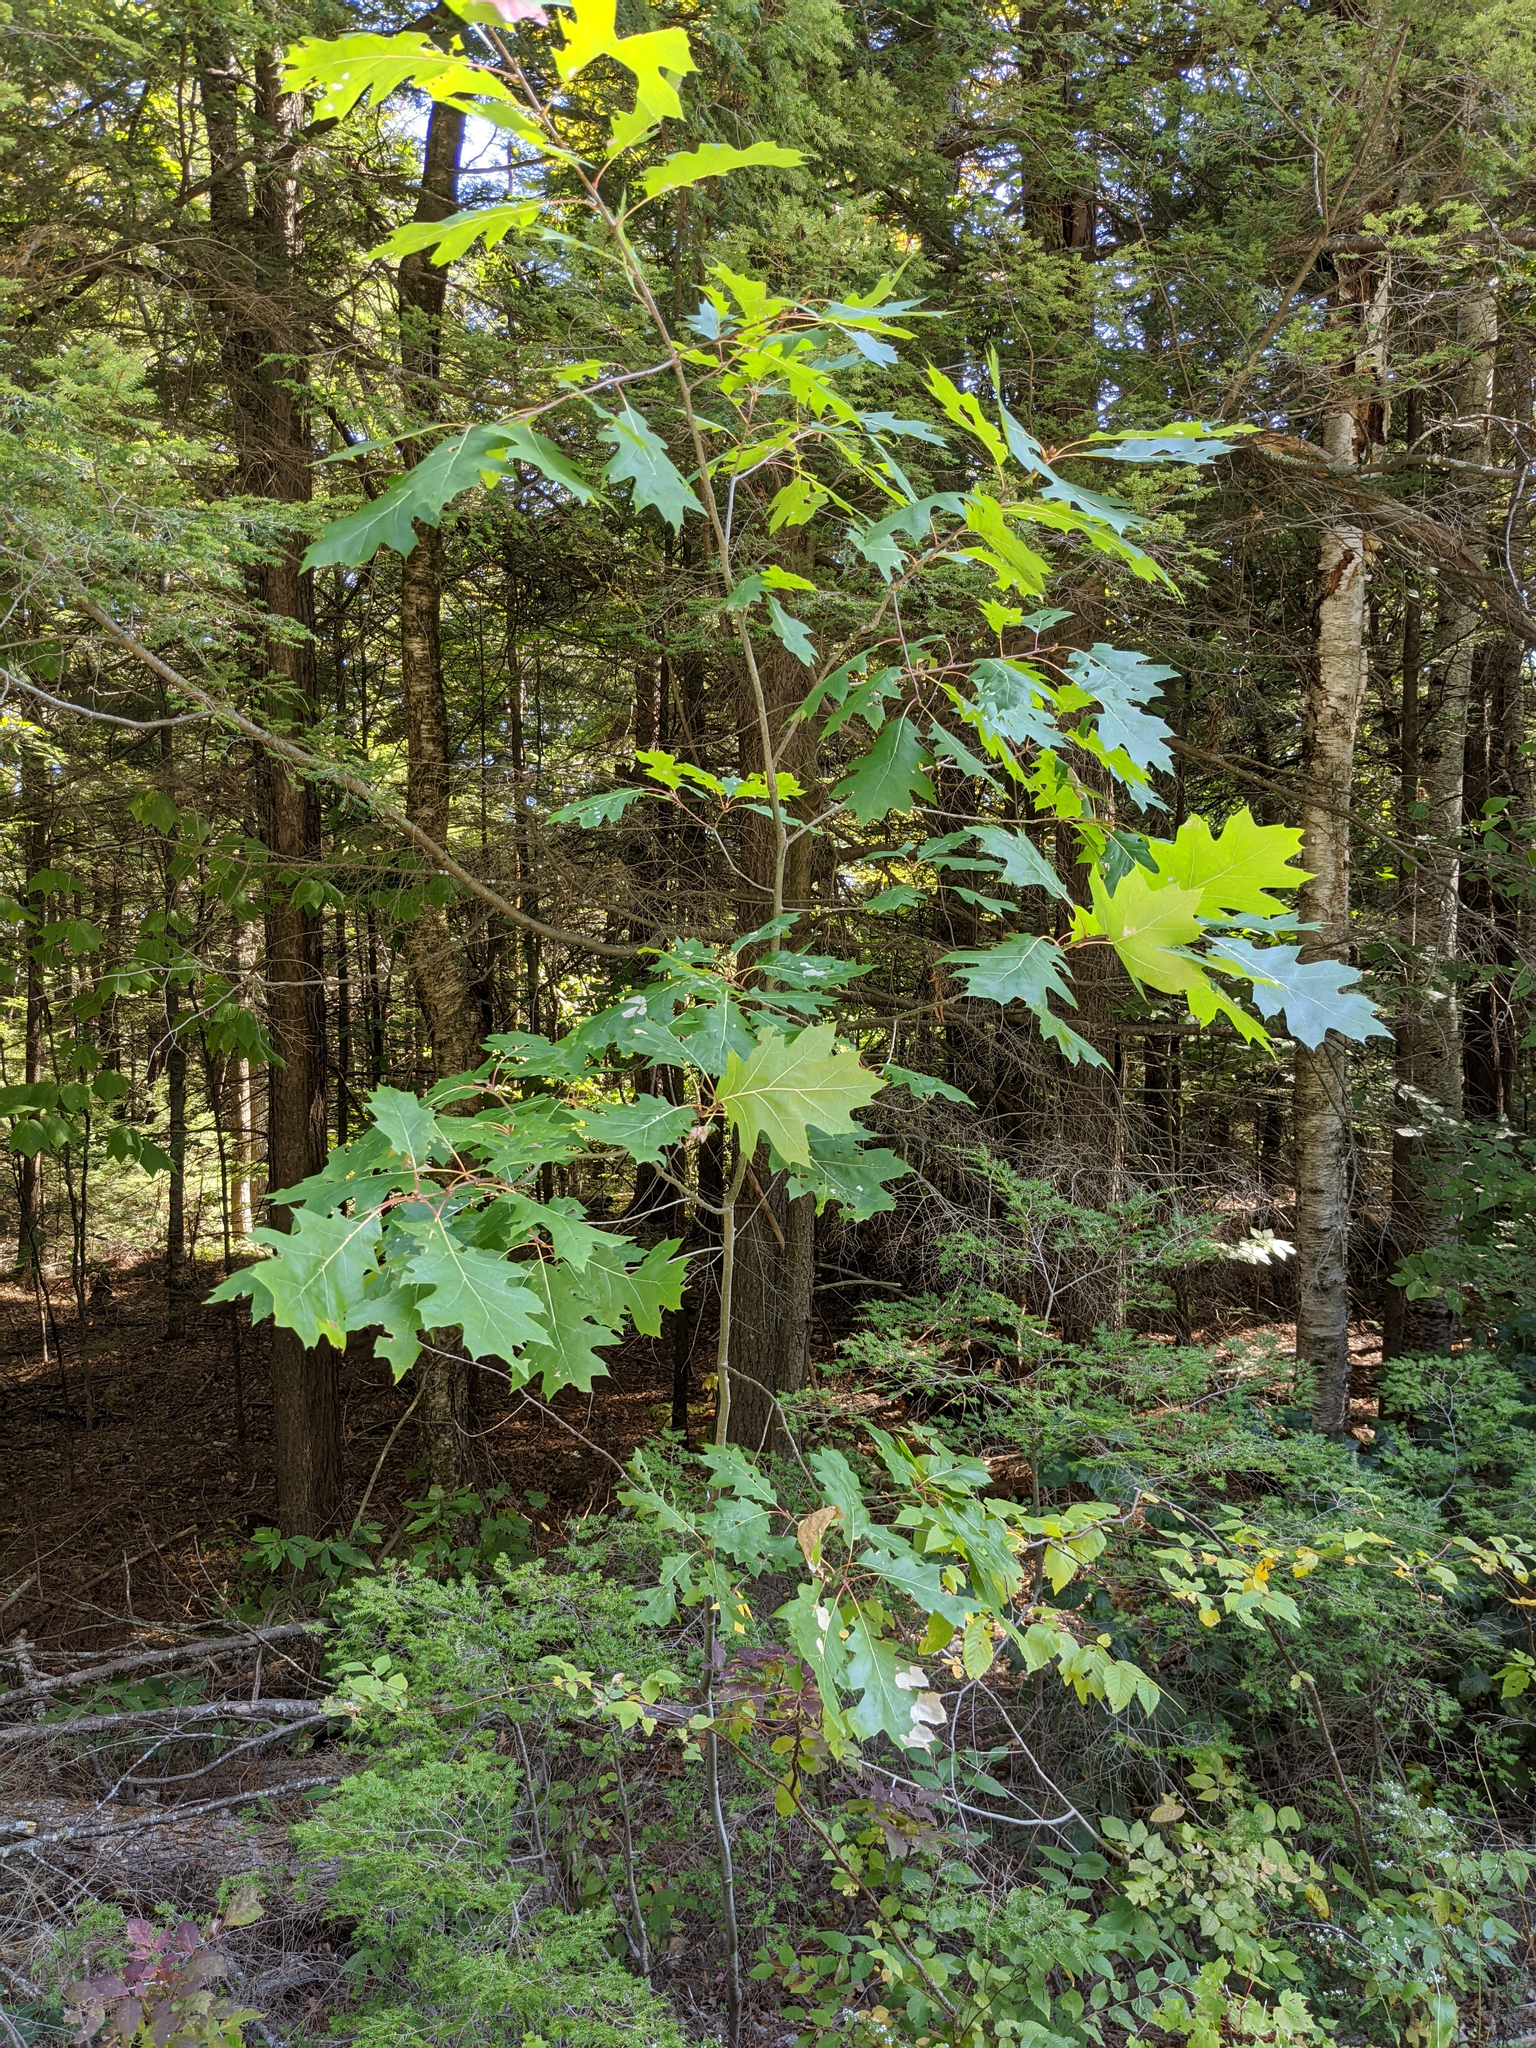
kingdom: Plantae
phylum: Tracheophyta
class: Magnoliopsida
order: Fagales
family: Fagaceae
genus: Quercus
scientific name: Quercus rubra
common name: Red oak
